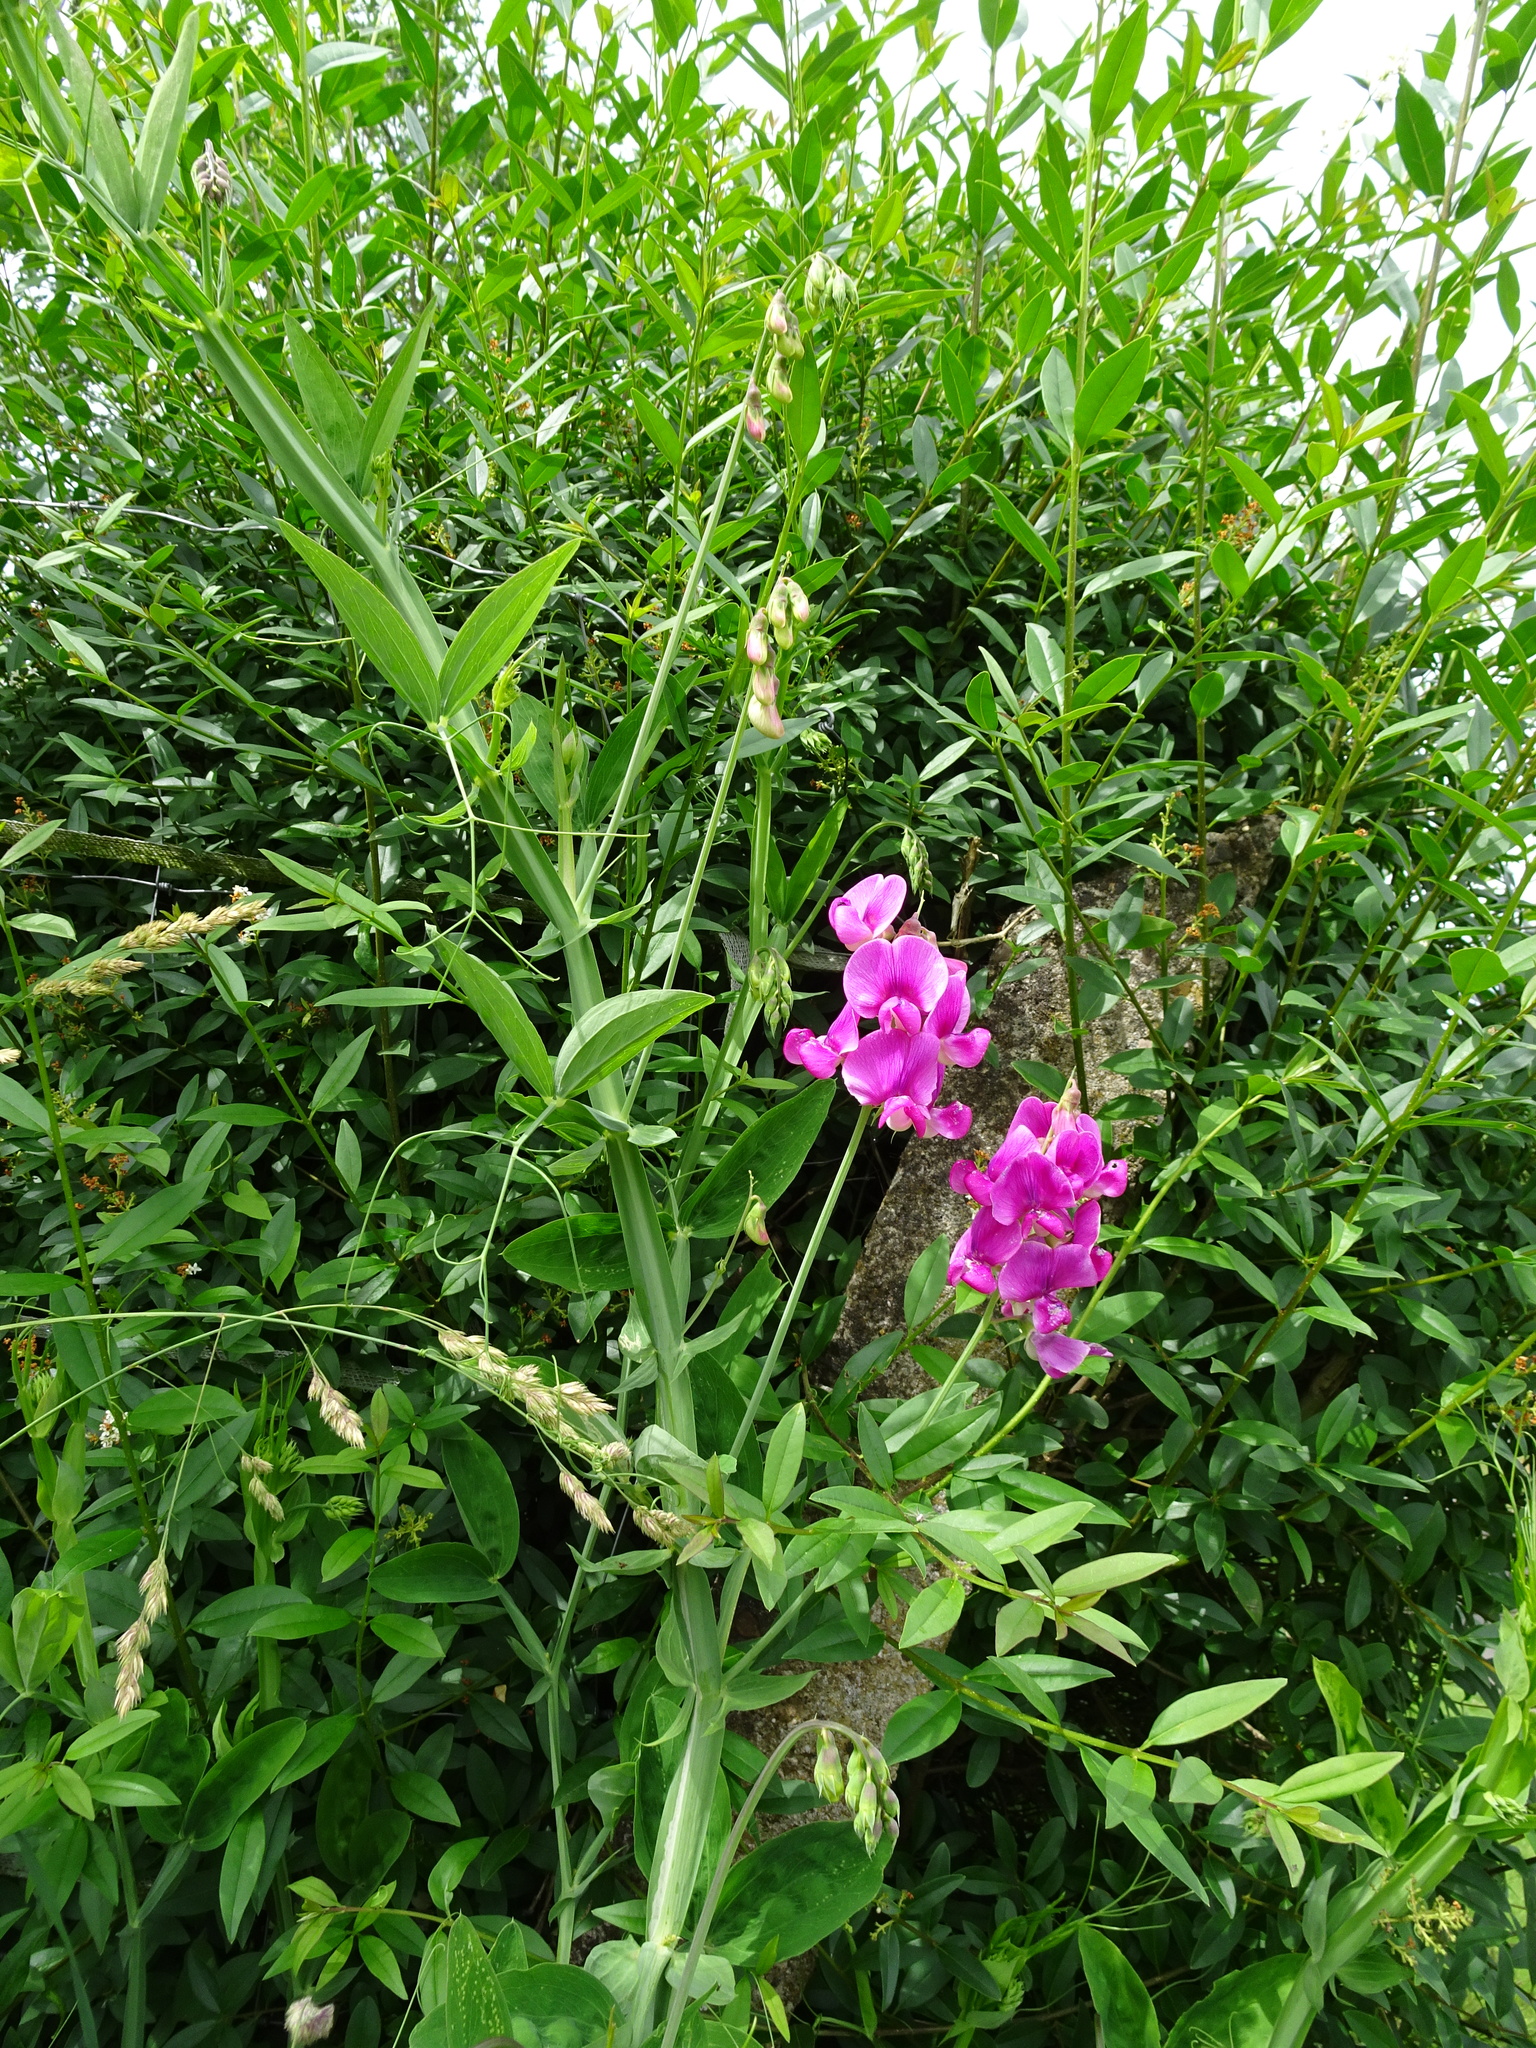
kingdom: Plantae
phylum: Tracheophyta
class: Magnoliopsida
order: Fabales
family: Fabaceae
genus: Lathyrus
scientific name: Lathyrus latifolius
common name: Perennial pea
